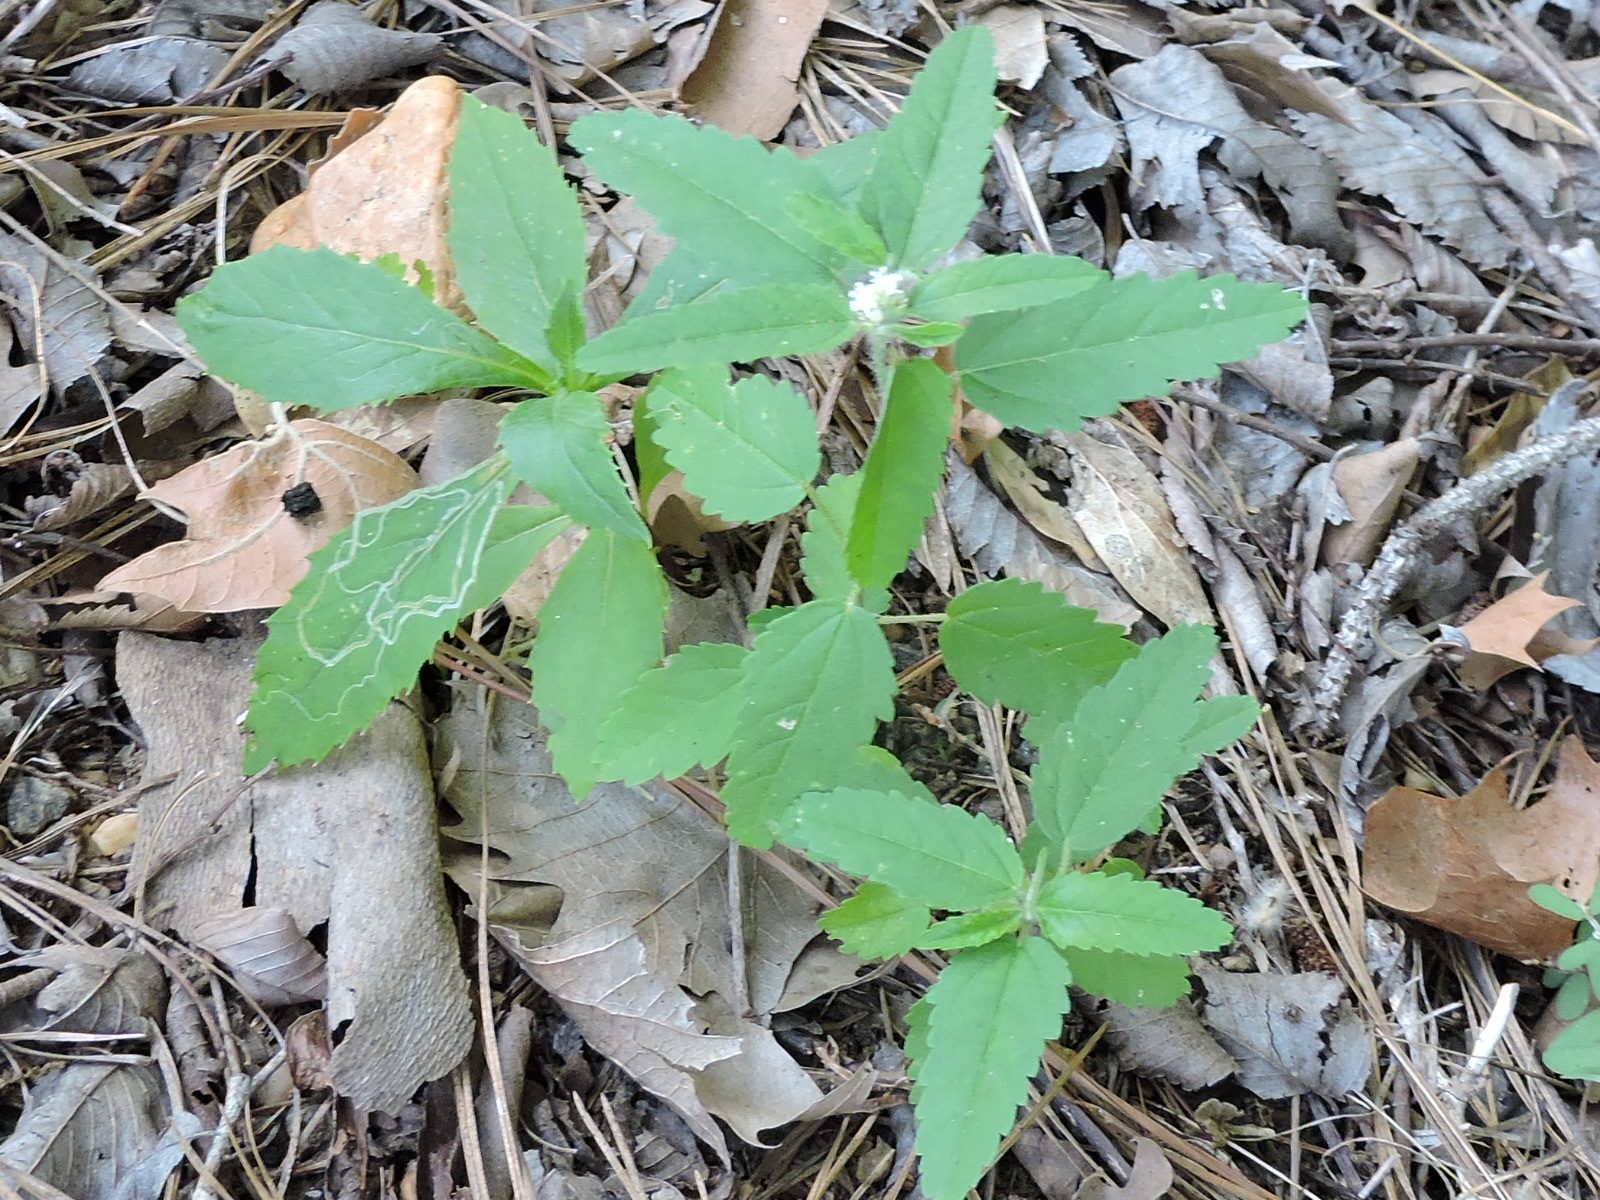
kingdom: Plantae
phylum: Tracheophyta
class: Magnoliopsida
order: Malpighiales
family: Euphorbiaceae
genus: Croton
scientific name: Croton glandulosus
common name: Tropic croton
